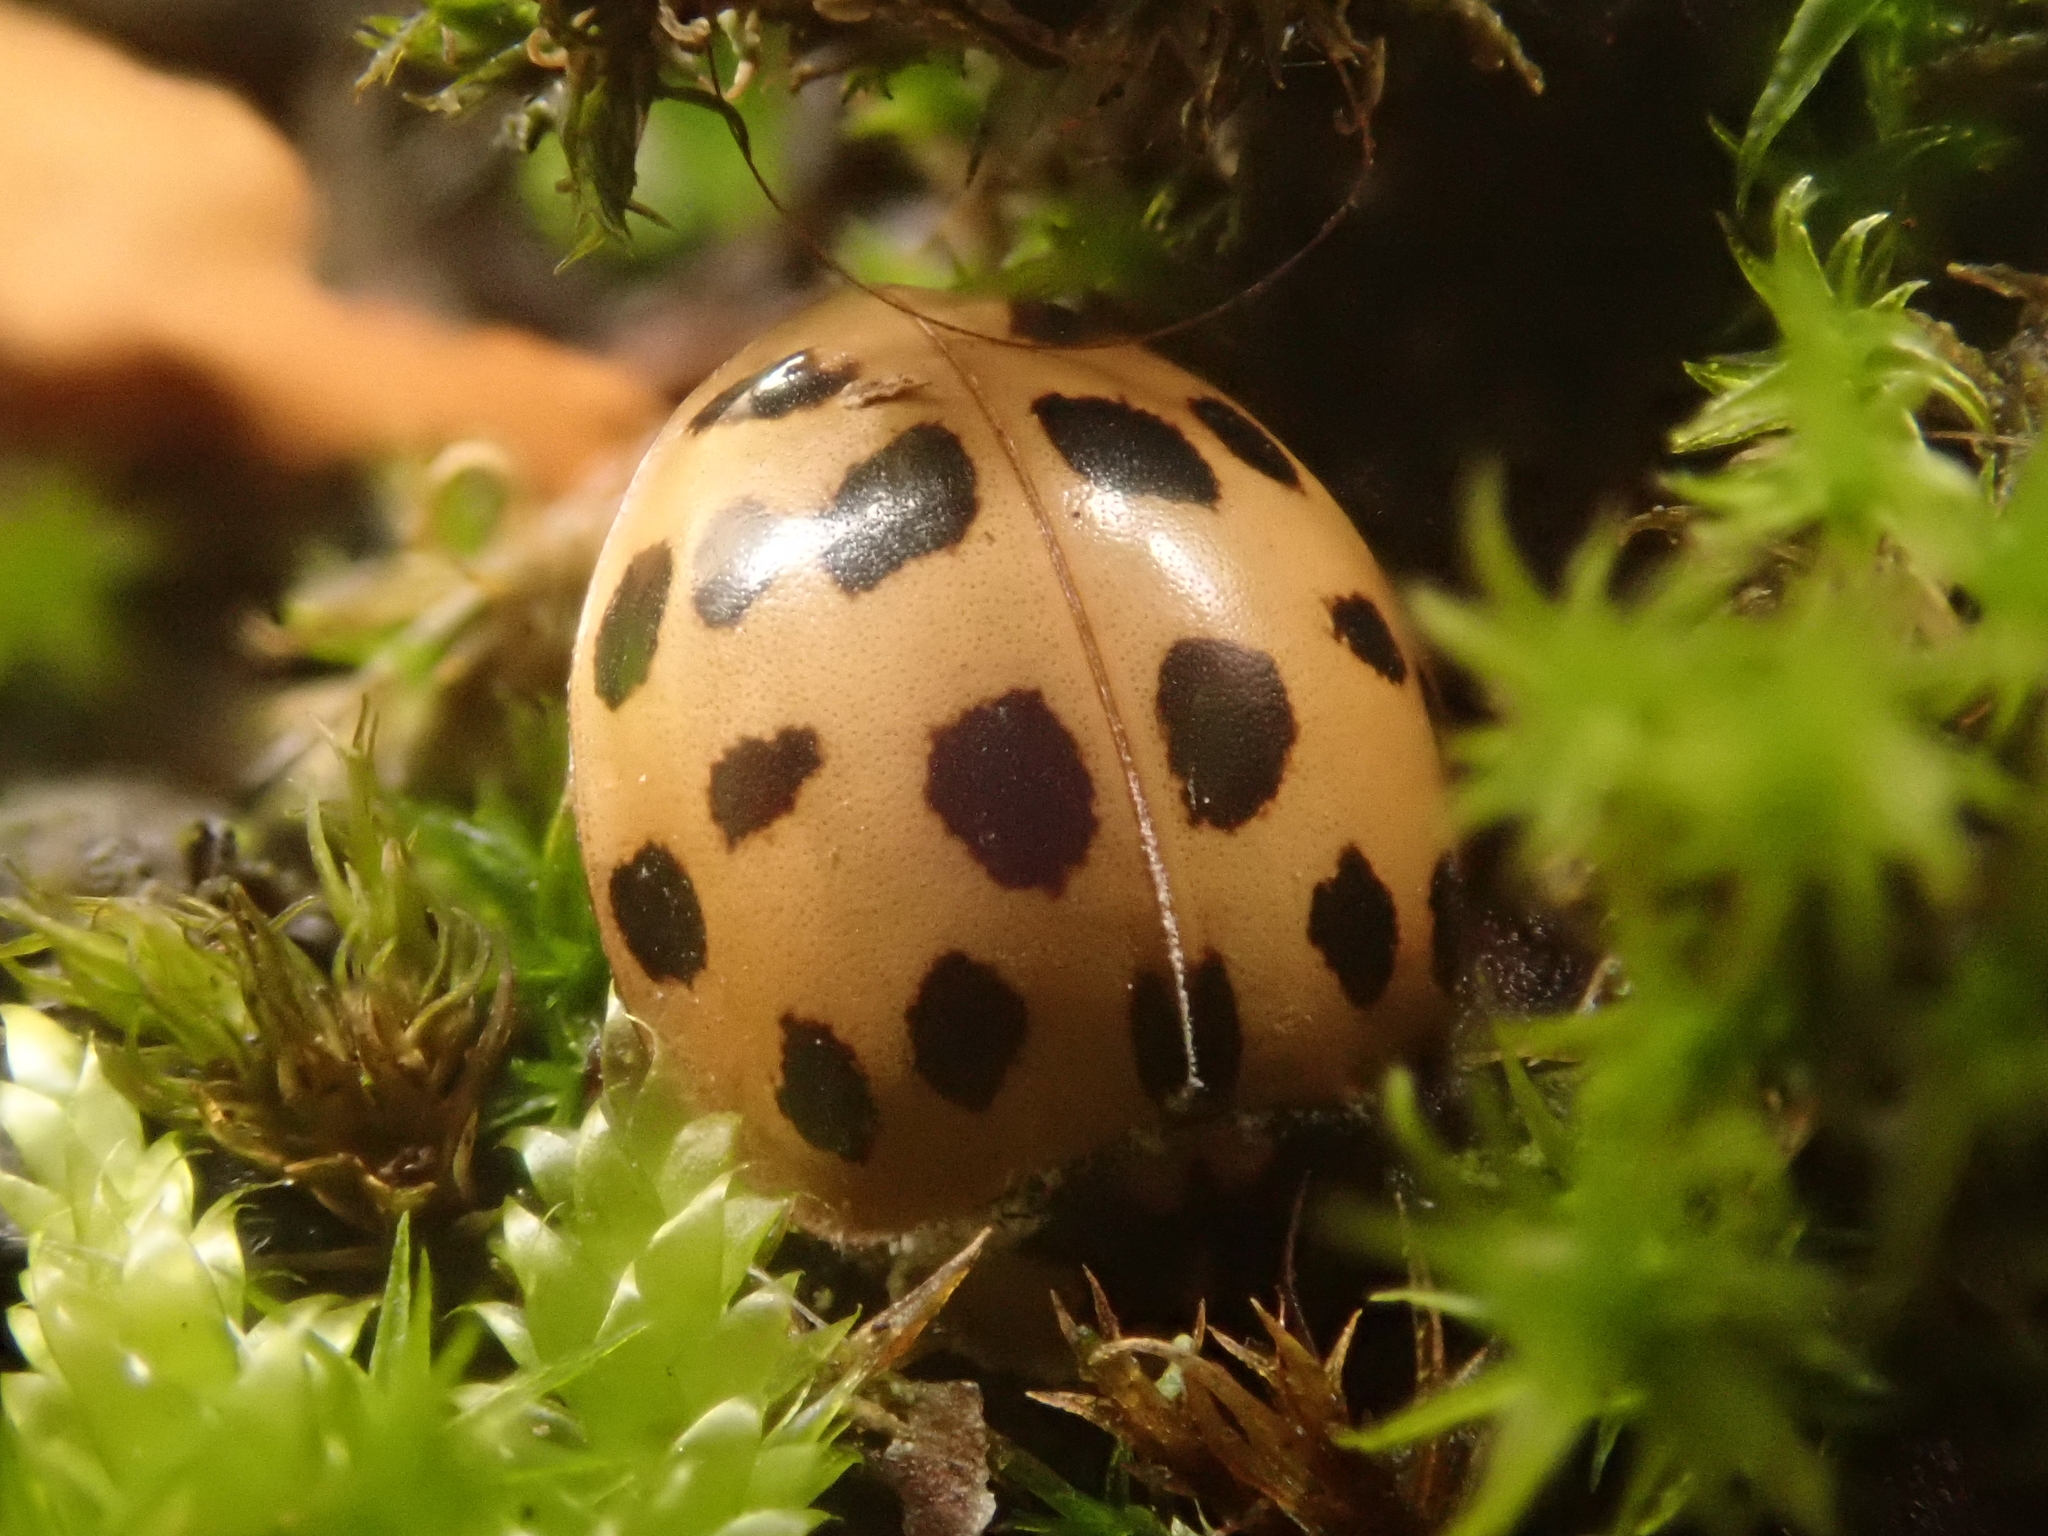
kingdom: Animalia
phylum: Arthropoda
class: Insecta
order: Coleoptera
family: Coccinellidae
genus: Harmonia
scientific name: Harmonia axyridis
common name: Harlequin ladybird
